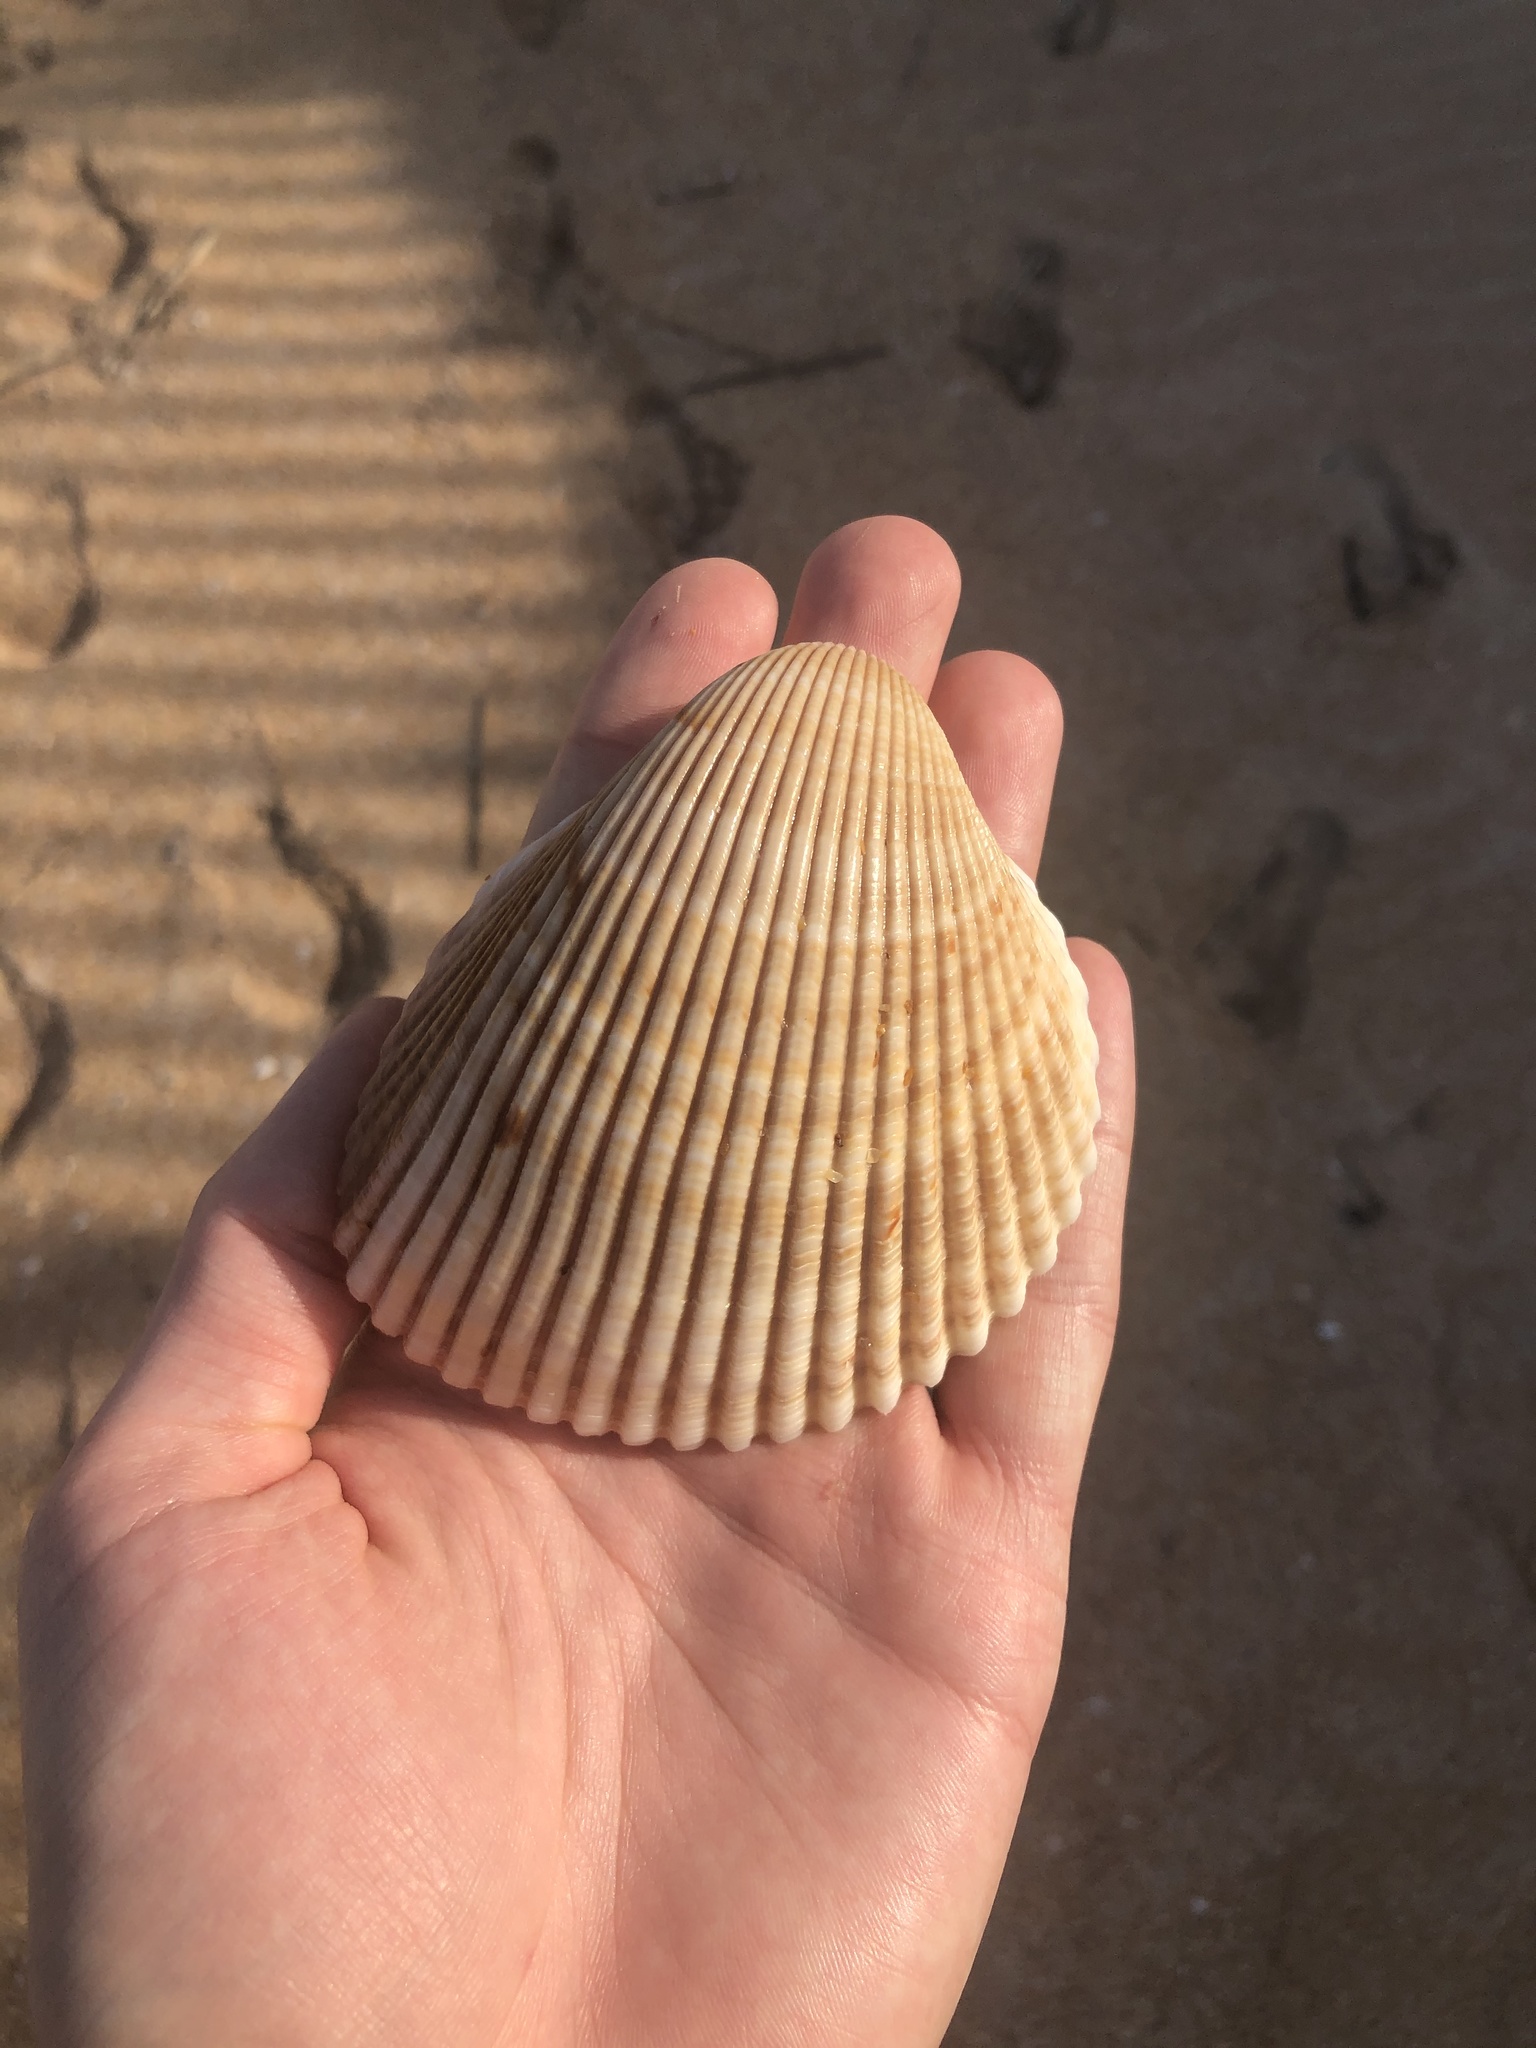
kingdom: Animalia
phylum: Mollusca
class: Bivalvia
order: Cardiida
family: Cardiidae
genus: Dinocardium
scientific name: Dinocardium robustum
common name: Atlantic giant cockle
